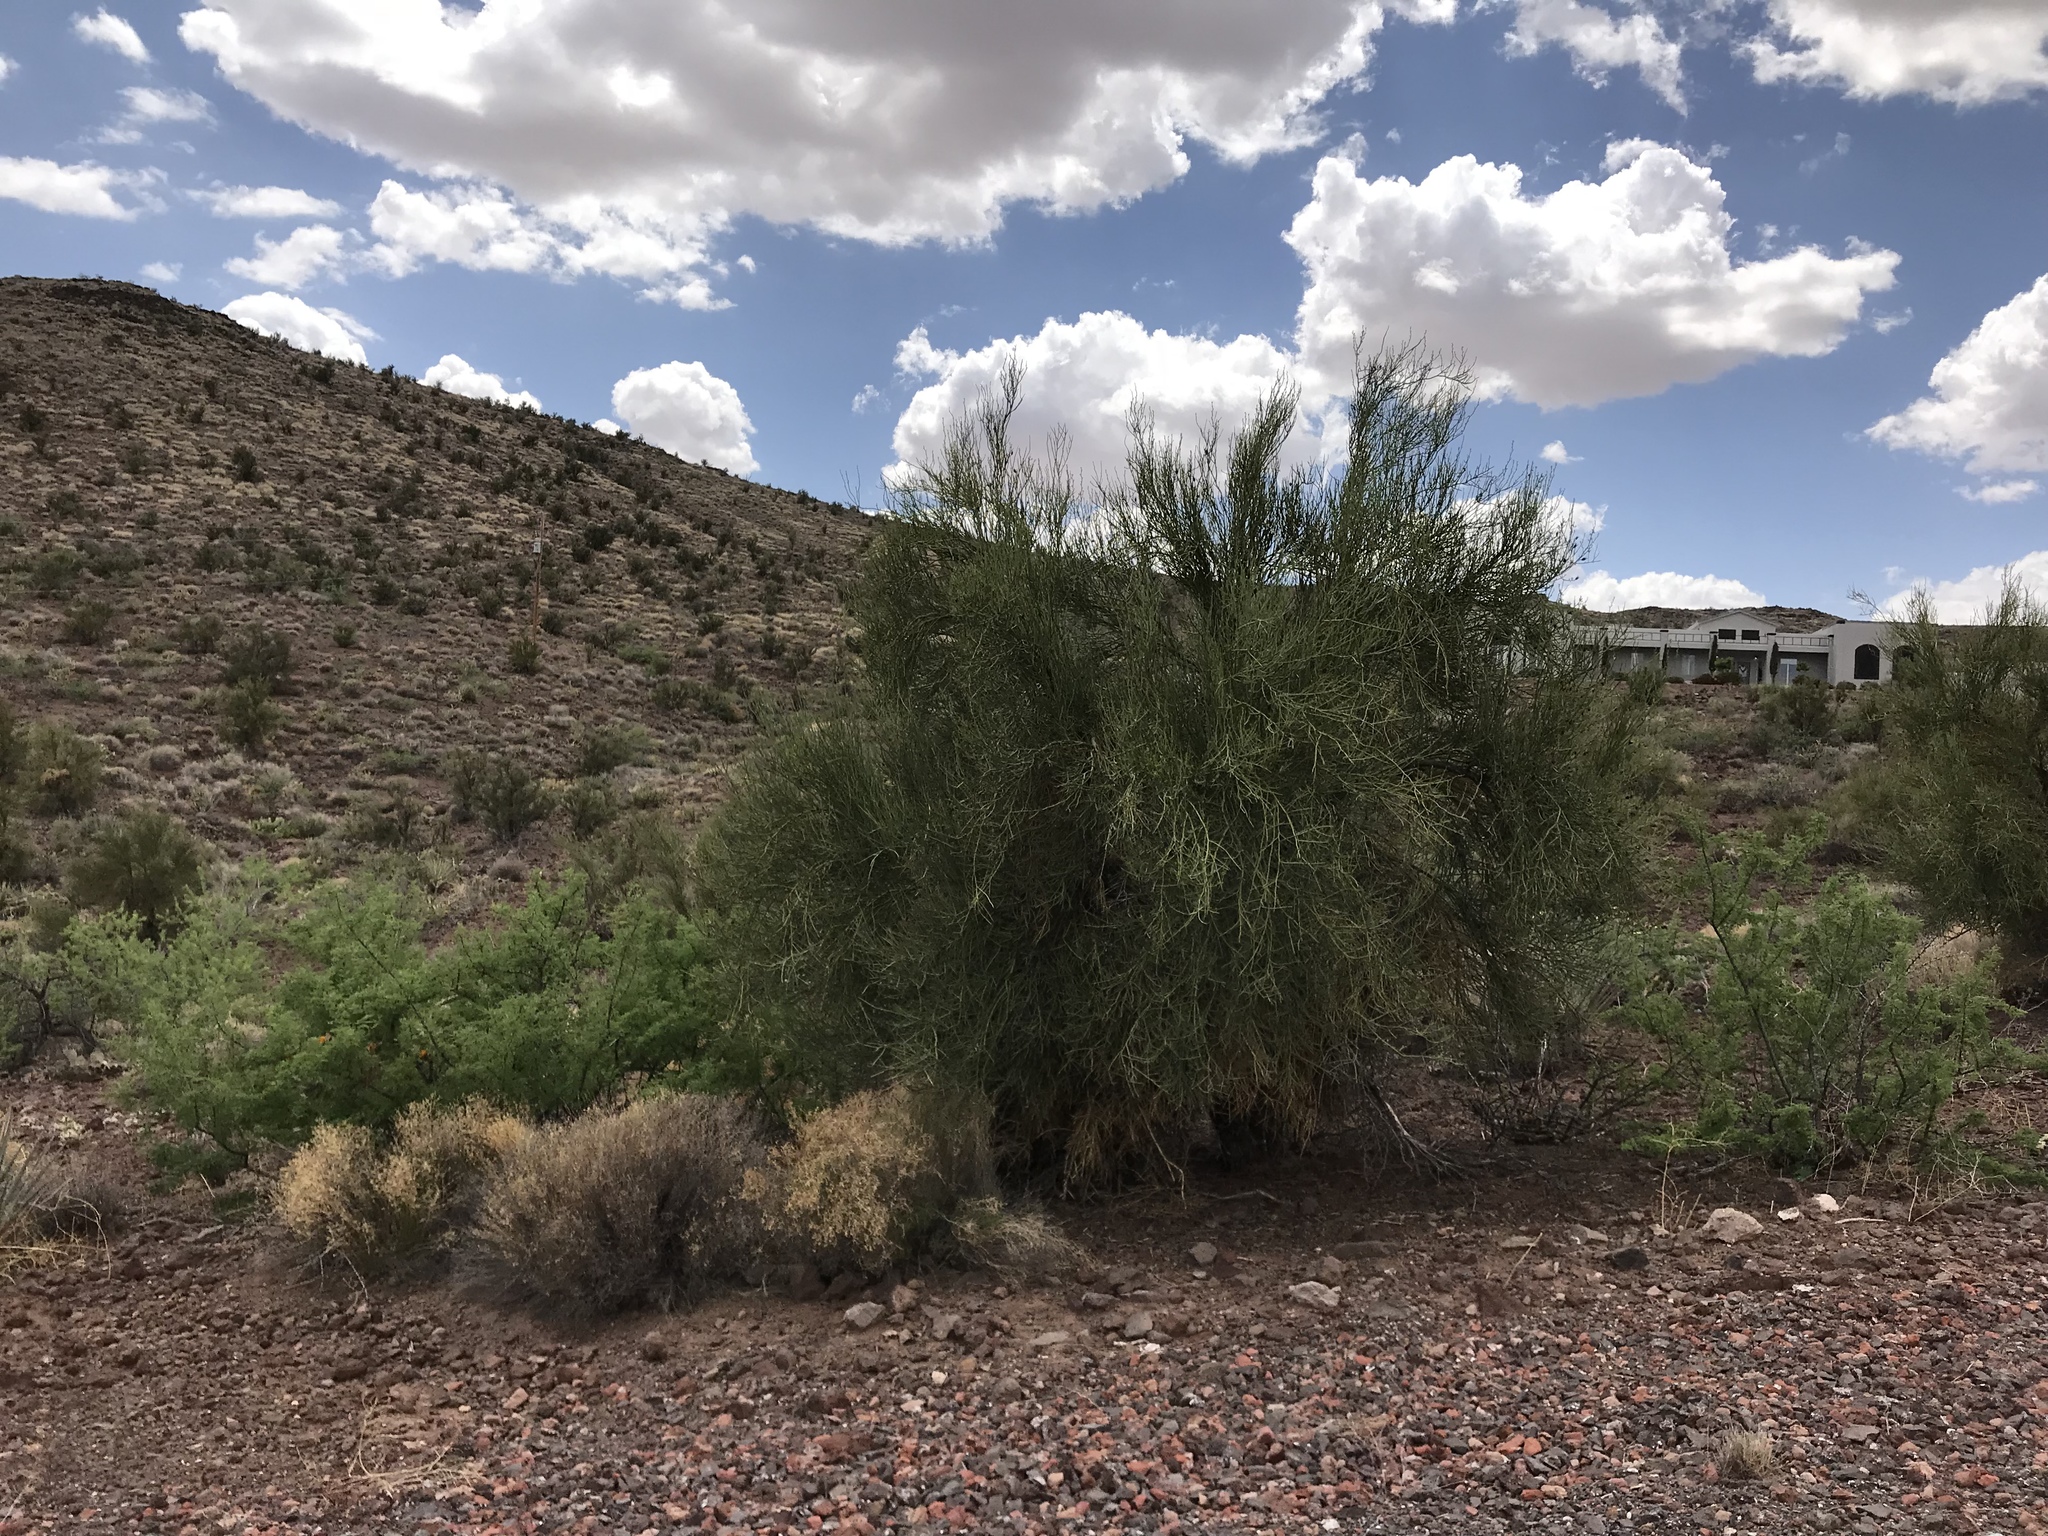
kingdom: Plantae
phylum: Tracheophyta
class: Magnoliopsida
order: Celastrales
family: Celastraceae
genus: Canotia
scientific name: Canotia holacantha
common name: Crucifixion thorns
